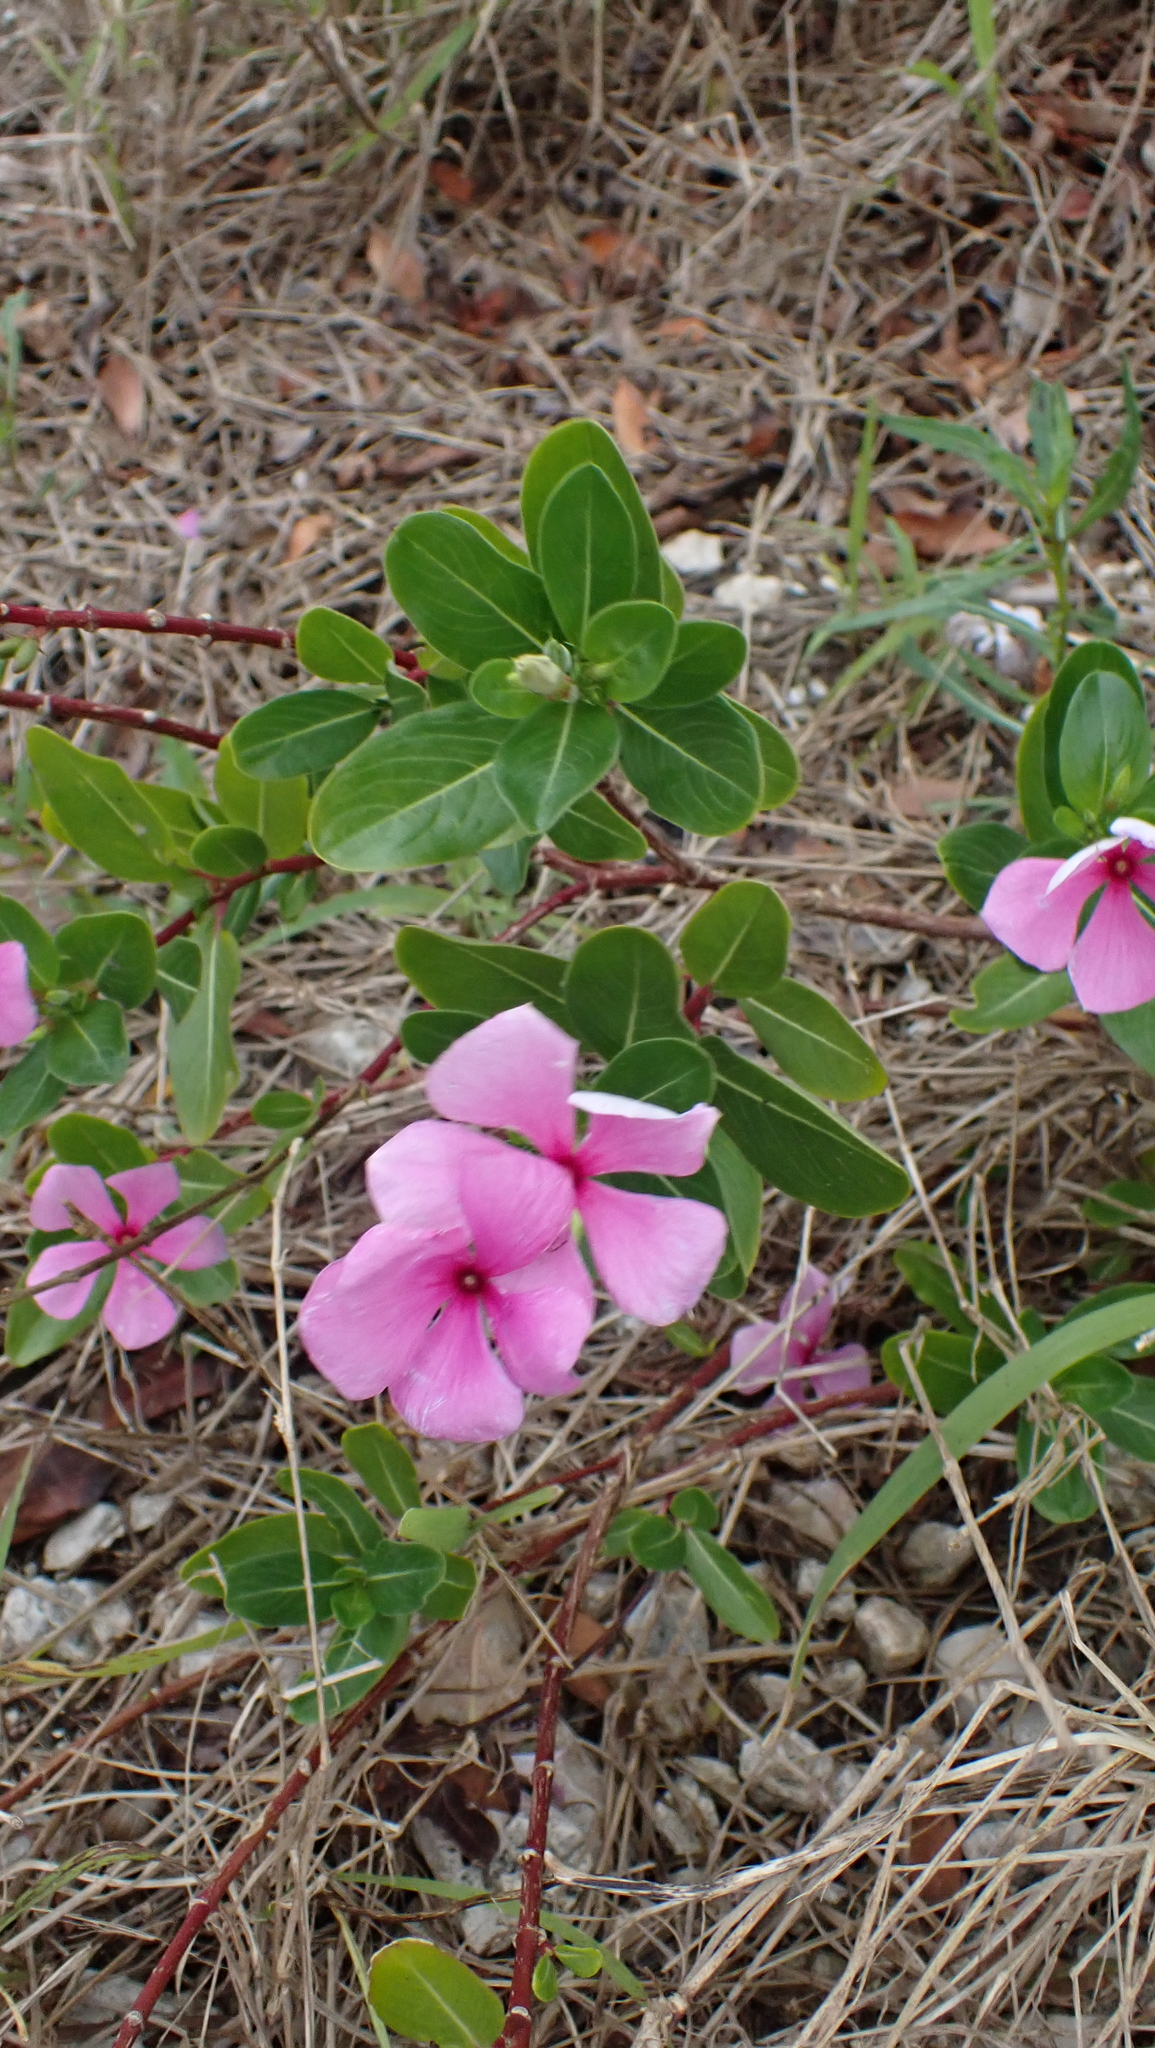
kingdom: Plantae
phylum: Tracheophyta
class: Magnoliopsida
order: Gentianales
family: Apocynaceae
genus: Catharanthus
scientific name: Catharanthus roseus
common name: Madagascar periwinkle
